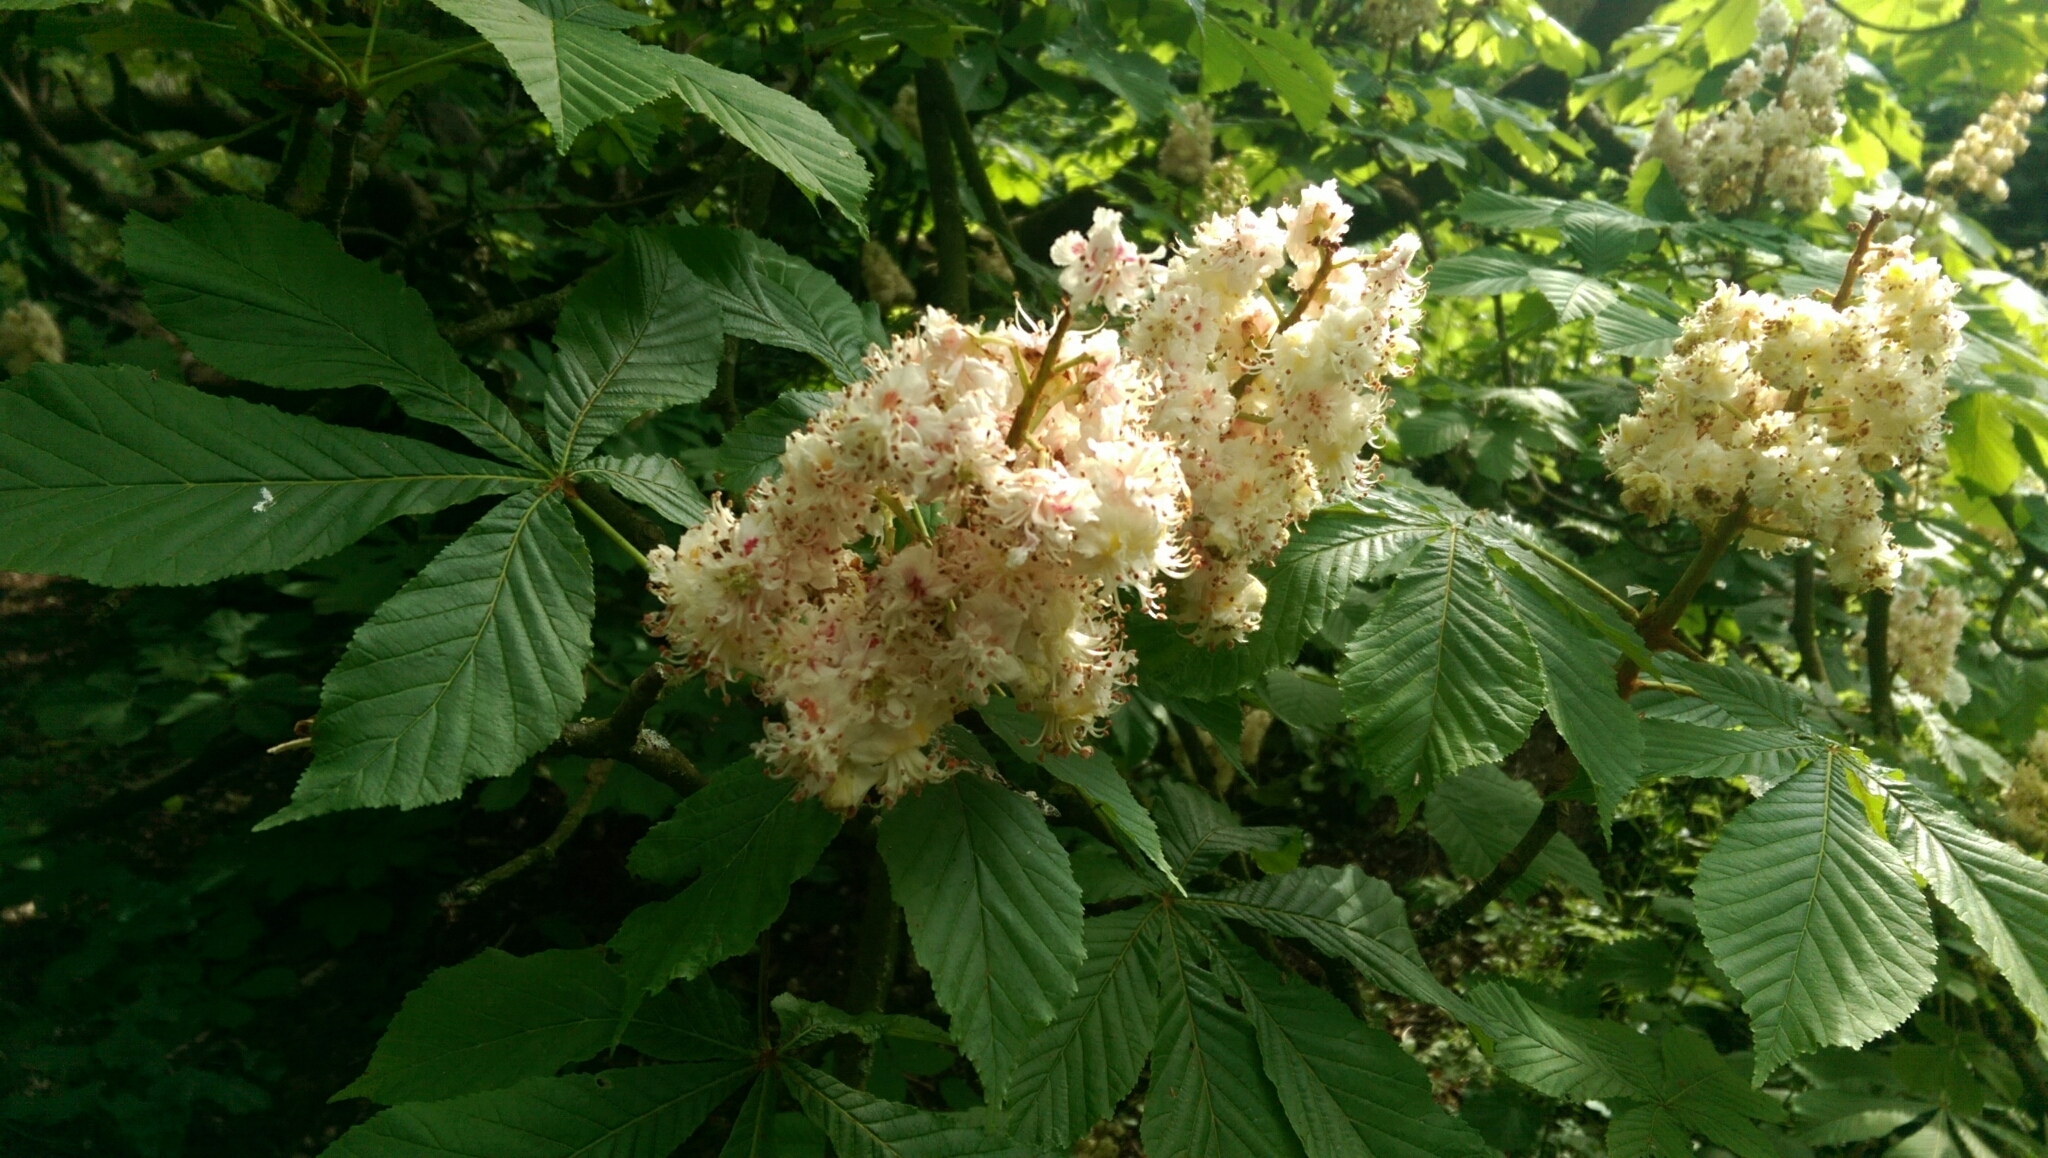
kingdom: Plantae
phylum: Tracheophyta
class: Magnoliopsida
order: Sapindales
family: Sapindaceae
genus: Aesculus
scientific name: Aesculus hippocastanum
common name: Horse-chestnut
